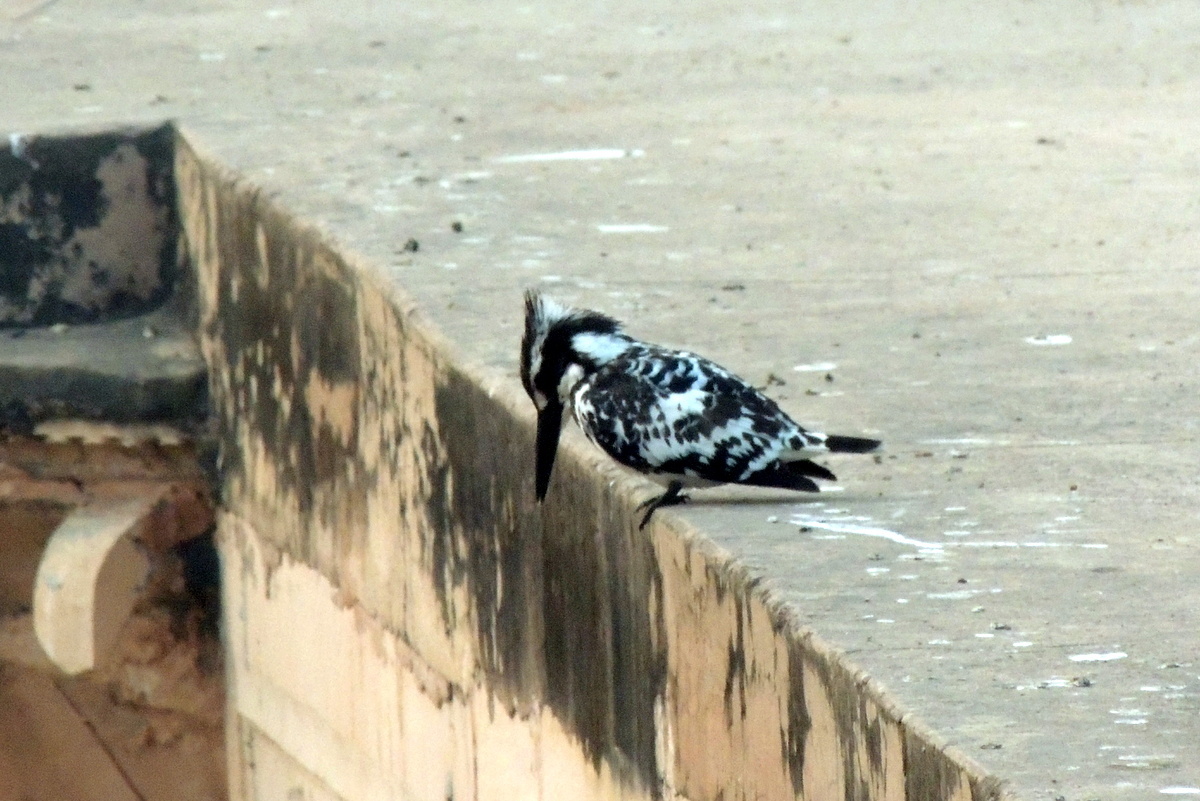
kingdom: Animalia
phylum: Chordata
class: Aves
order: Coraciiformes
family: Alcedinidae
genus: Ceryle
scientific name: Ceryle rudis
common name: Pied kingfisher
